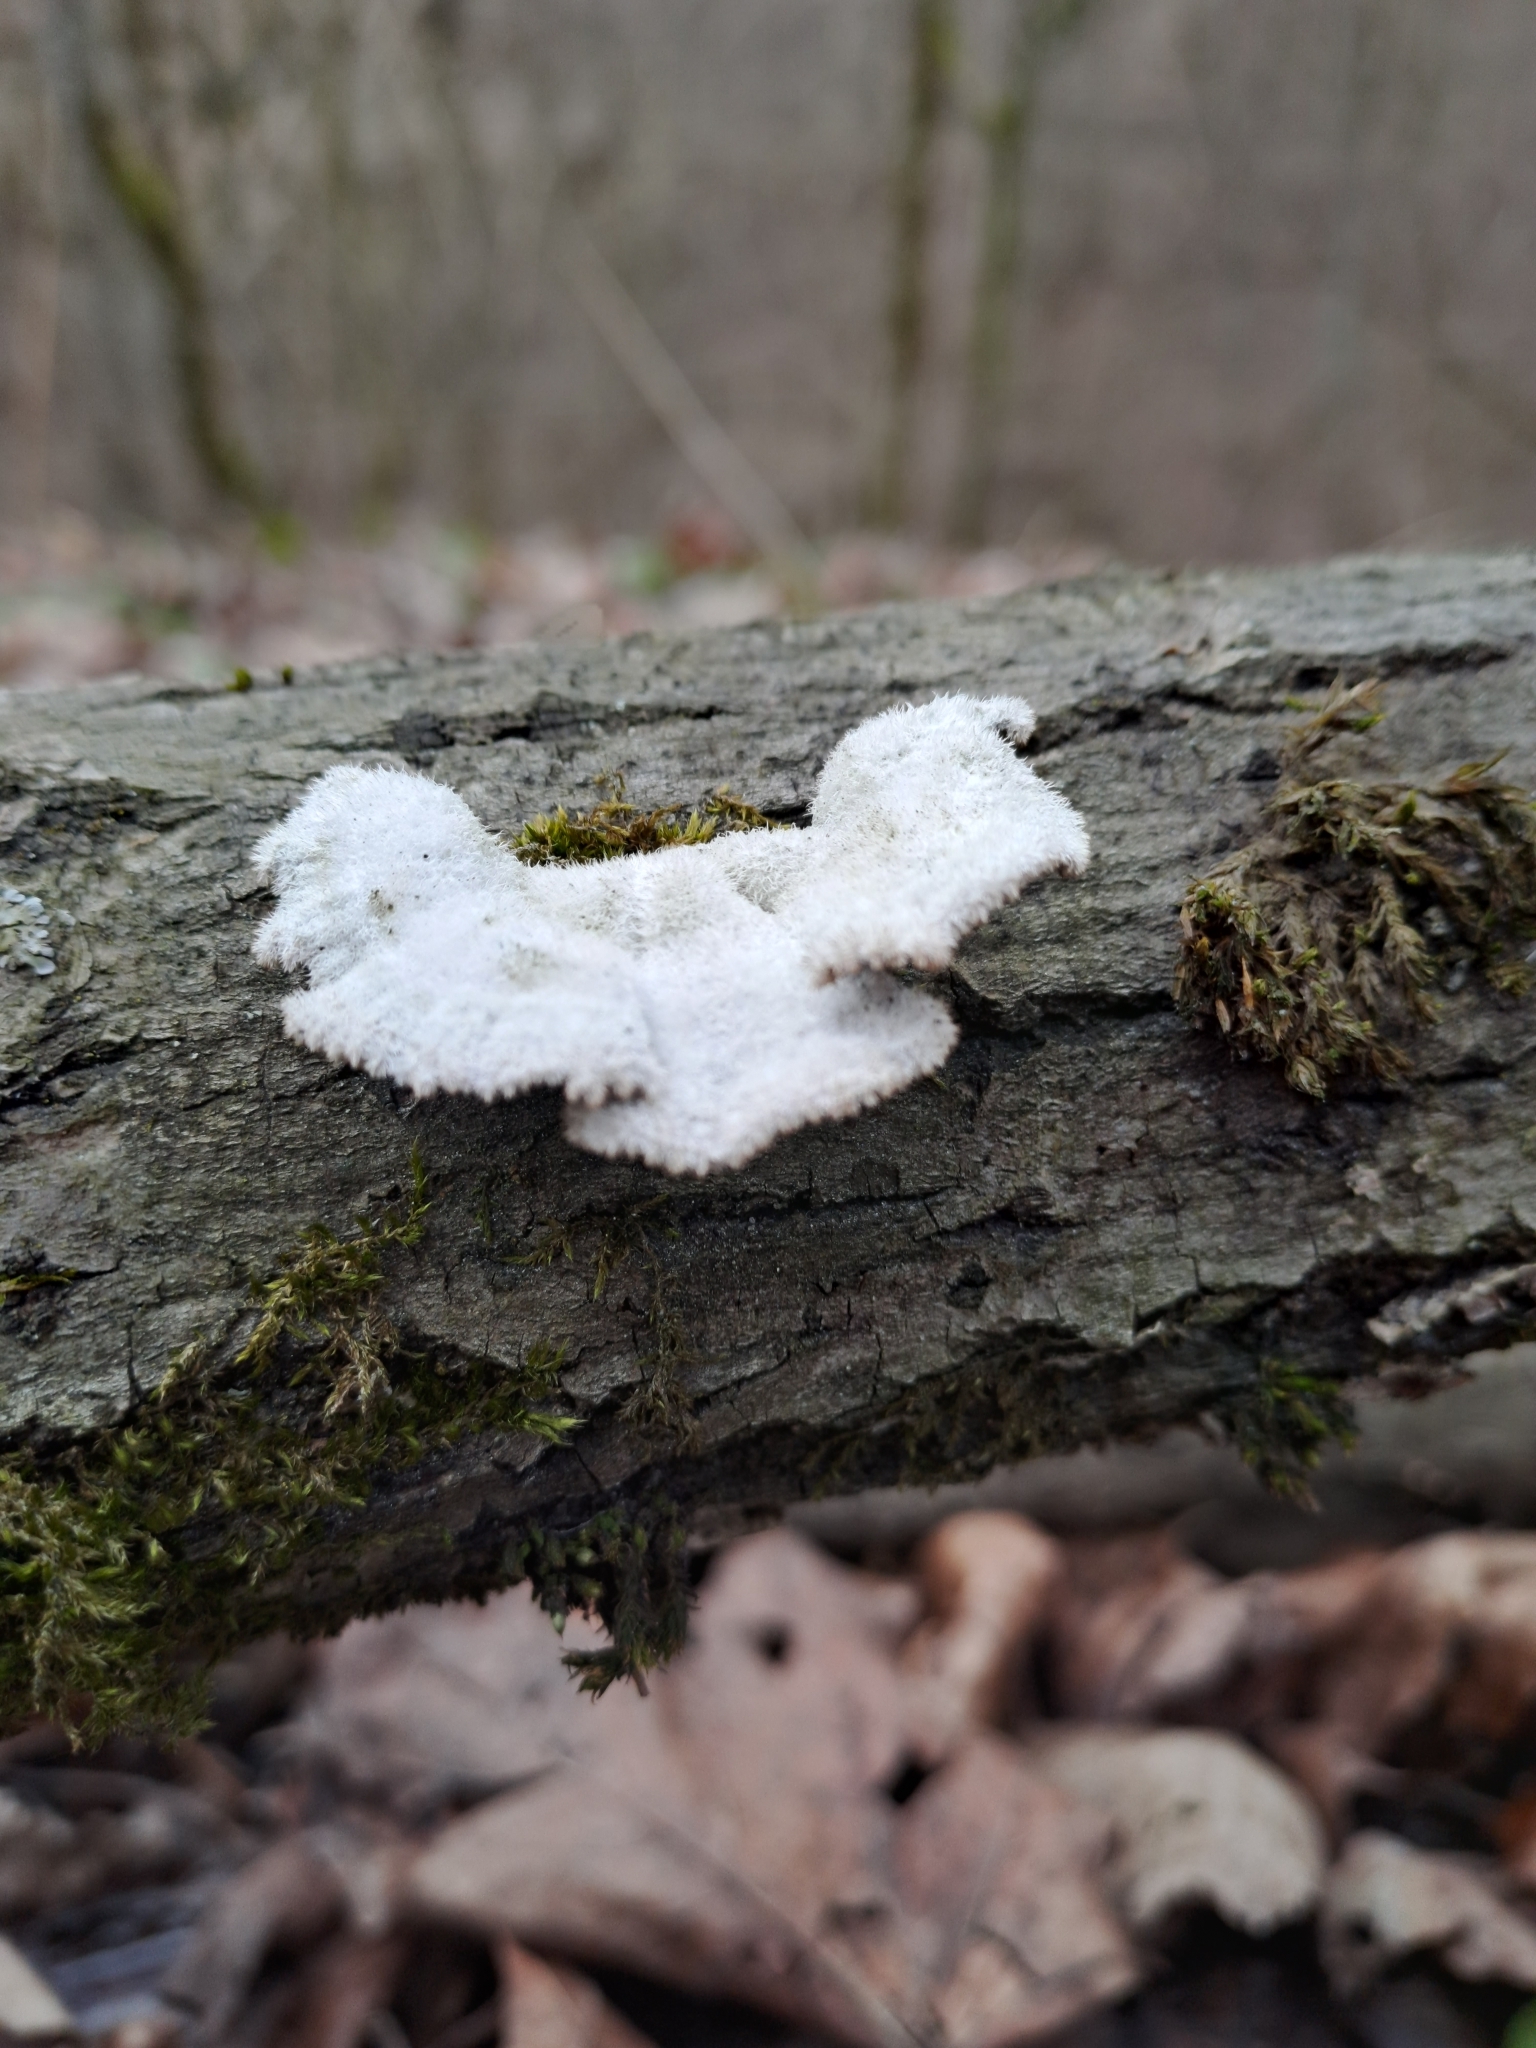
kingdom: Fungi
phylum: Basidiomycota
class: Agaricomycetes
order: Agaricales
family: Schizophyllaceae
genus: Schizophyllum
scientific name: Schizophyllum commune
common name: Common porecrust
